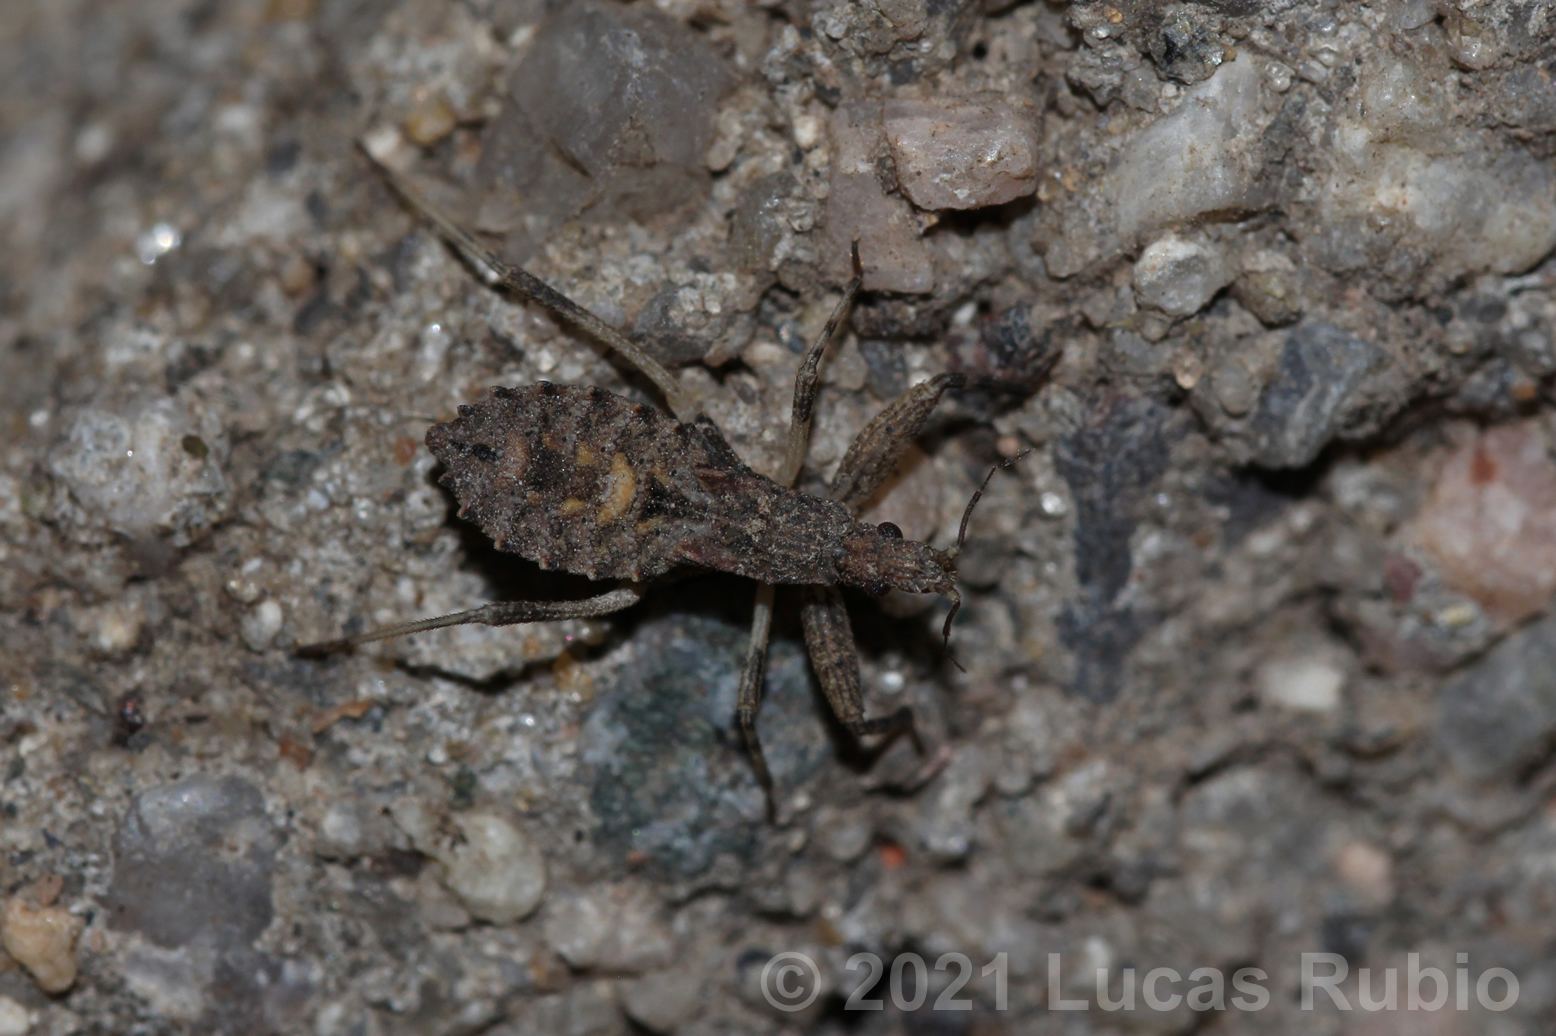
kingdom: Animalia
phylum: Arthropoda
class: Insecta
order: Hemiptera
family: Reduviidae
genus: Oncocephalus
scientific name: Oncocephalus validispinis
